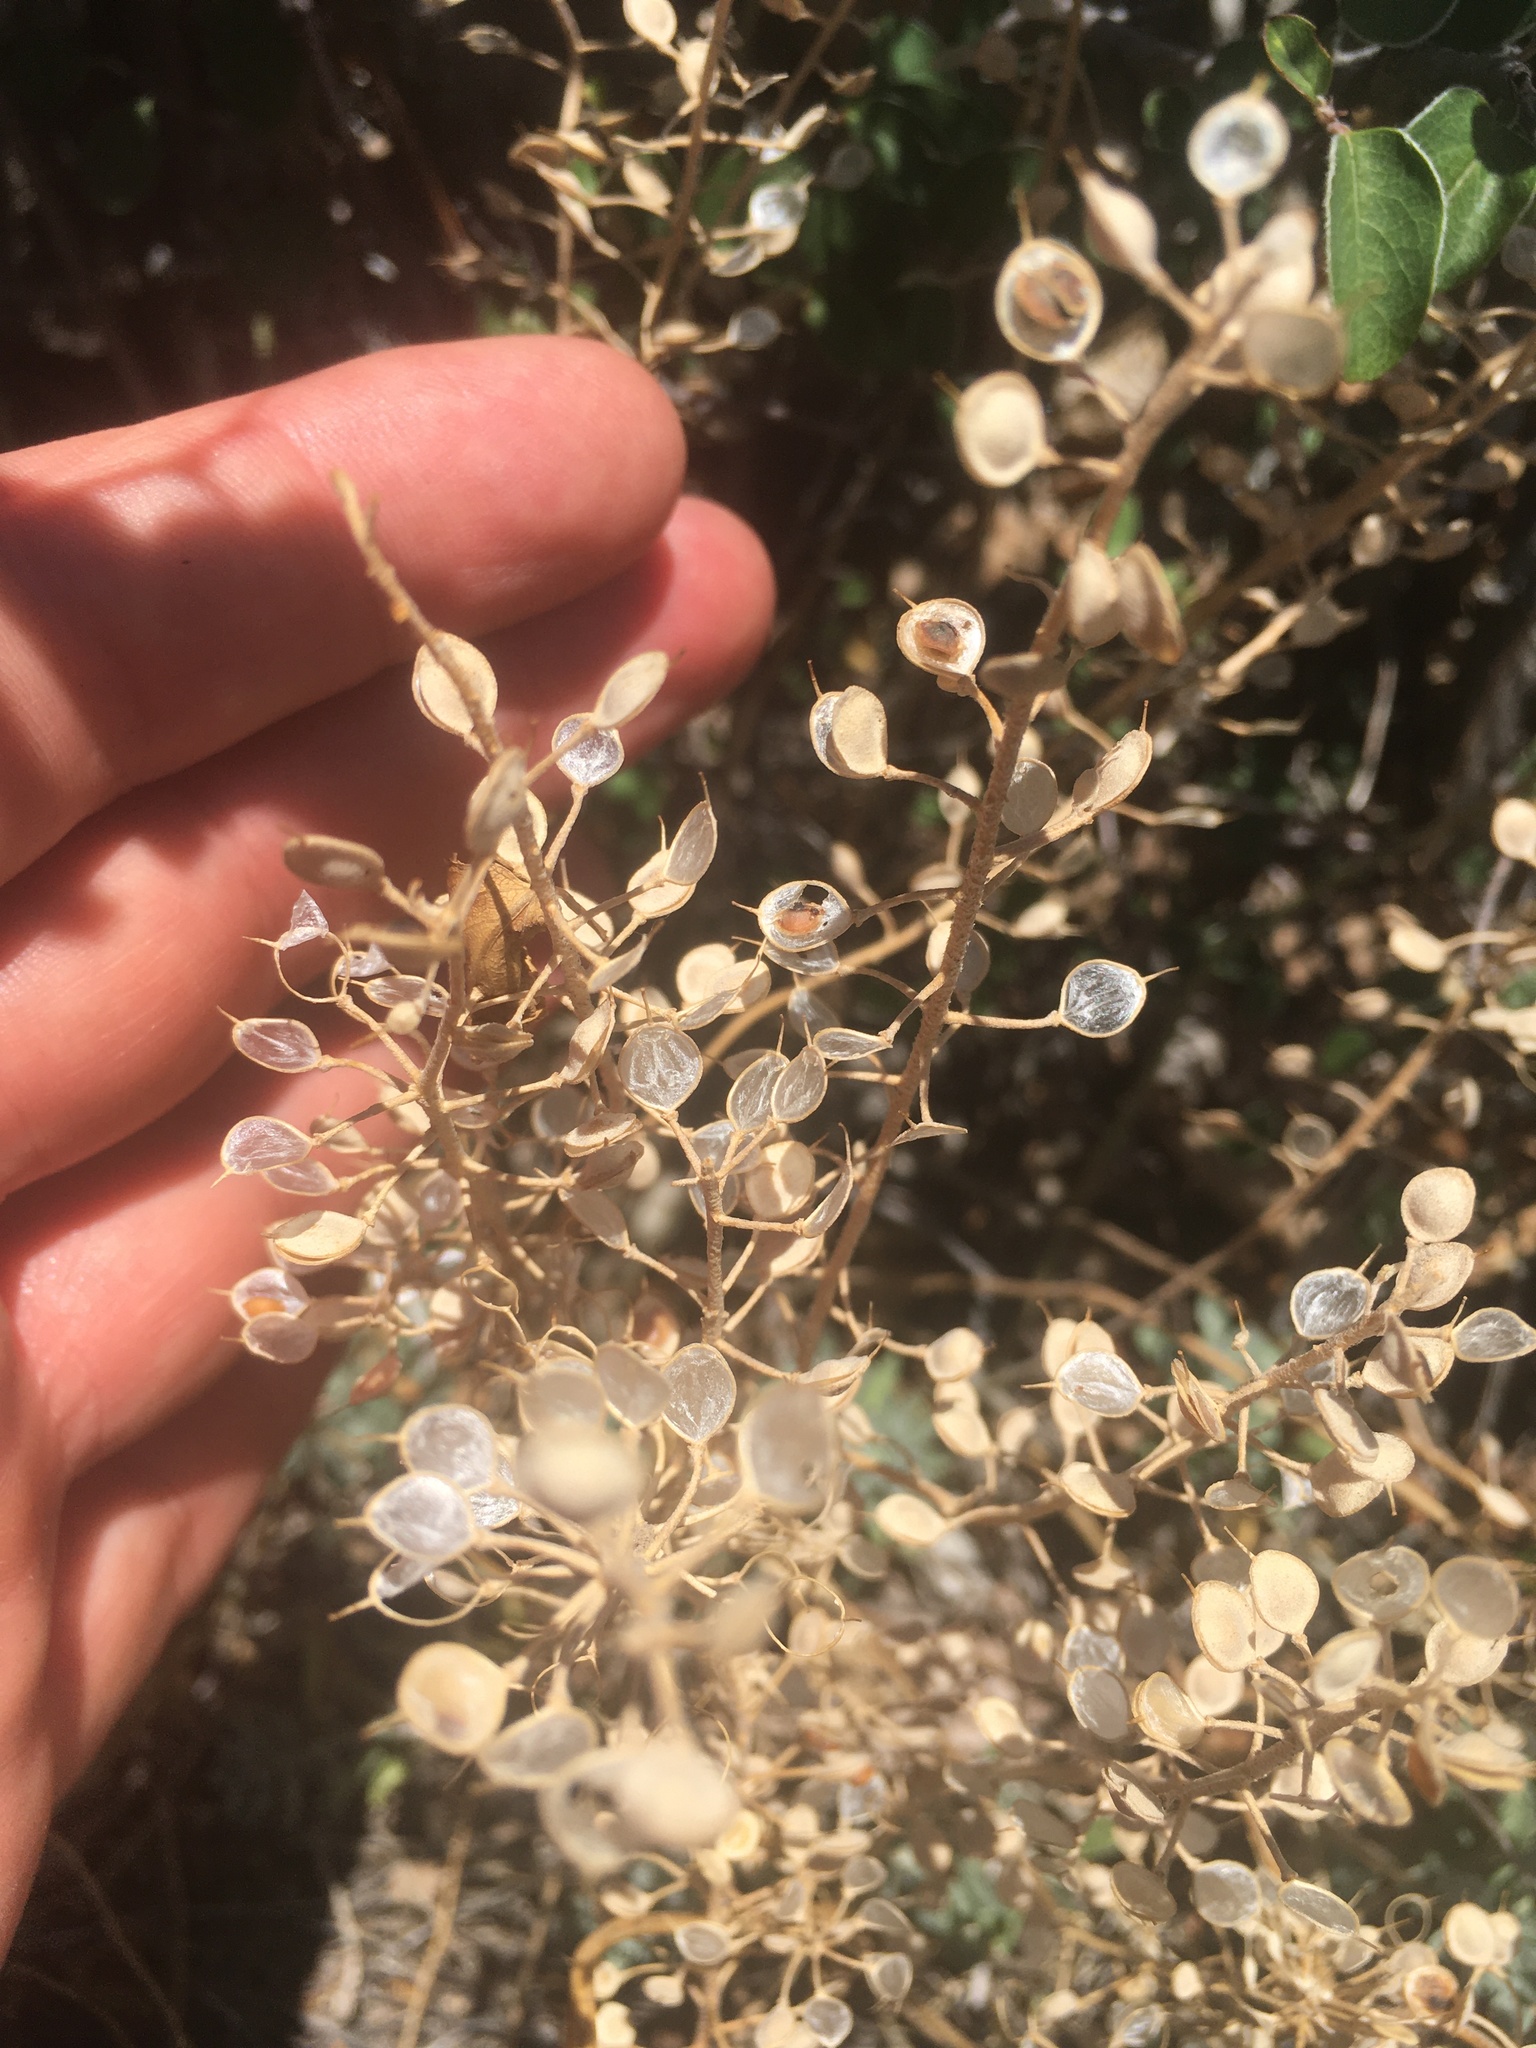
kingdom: Plantae
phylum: Tracheophyta
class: Magnoliopsida
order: Brassicales
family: Brassicaceae
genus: Lepidium
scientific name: Lepidium campestre
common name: Field pepperwort
